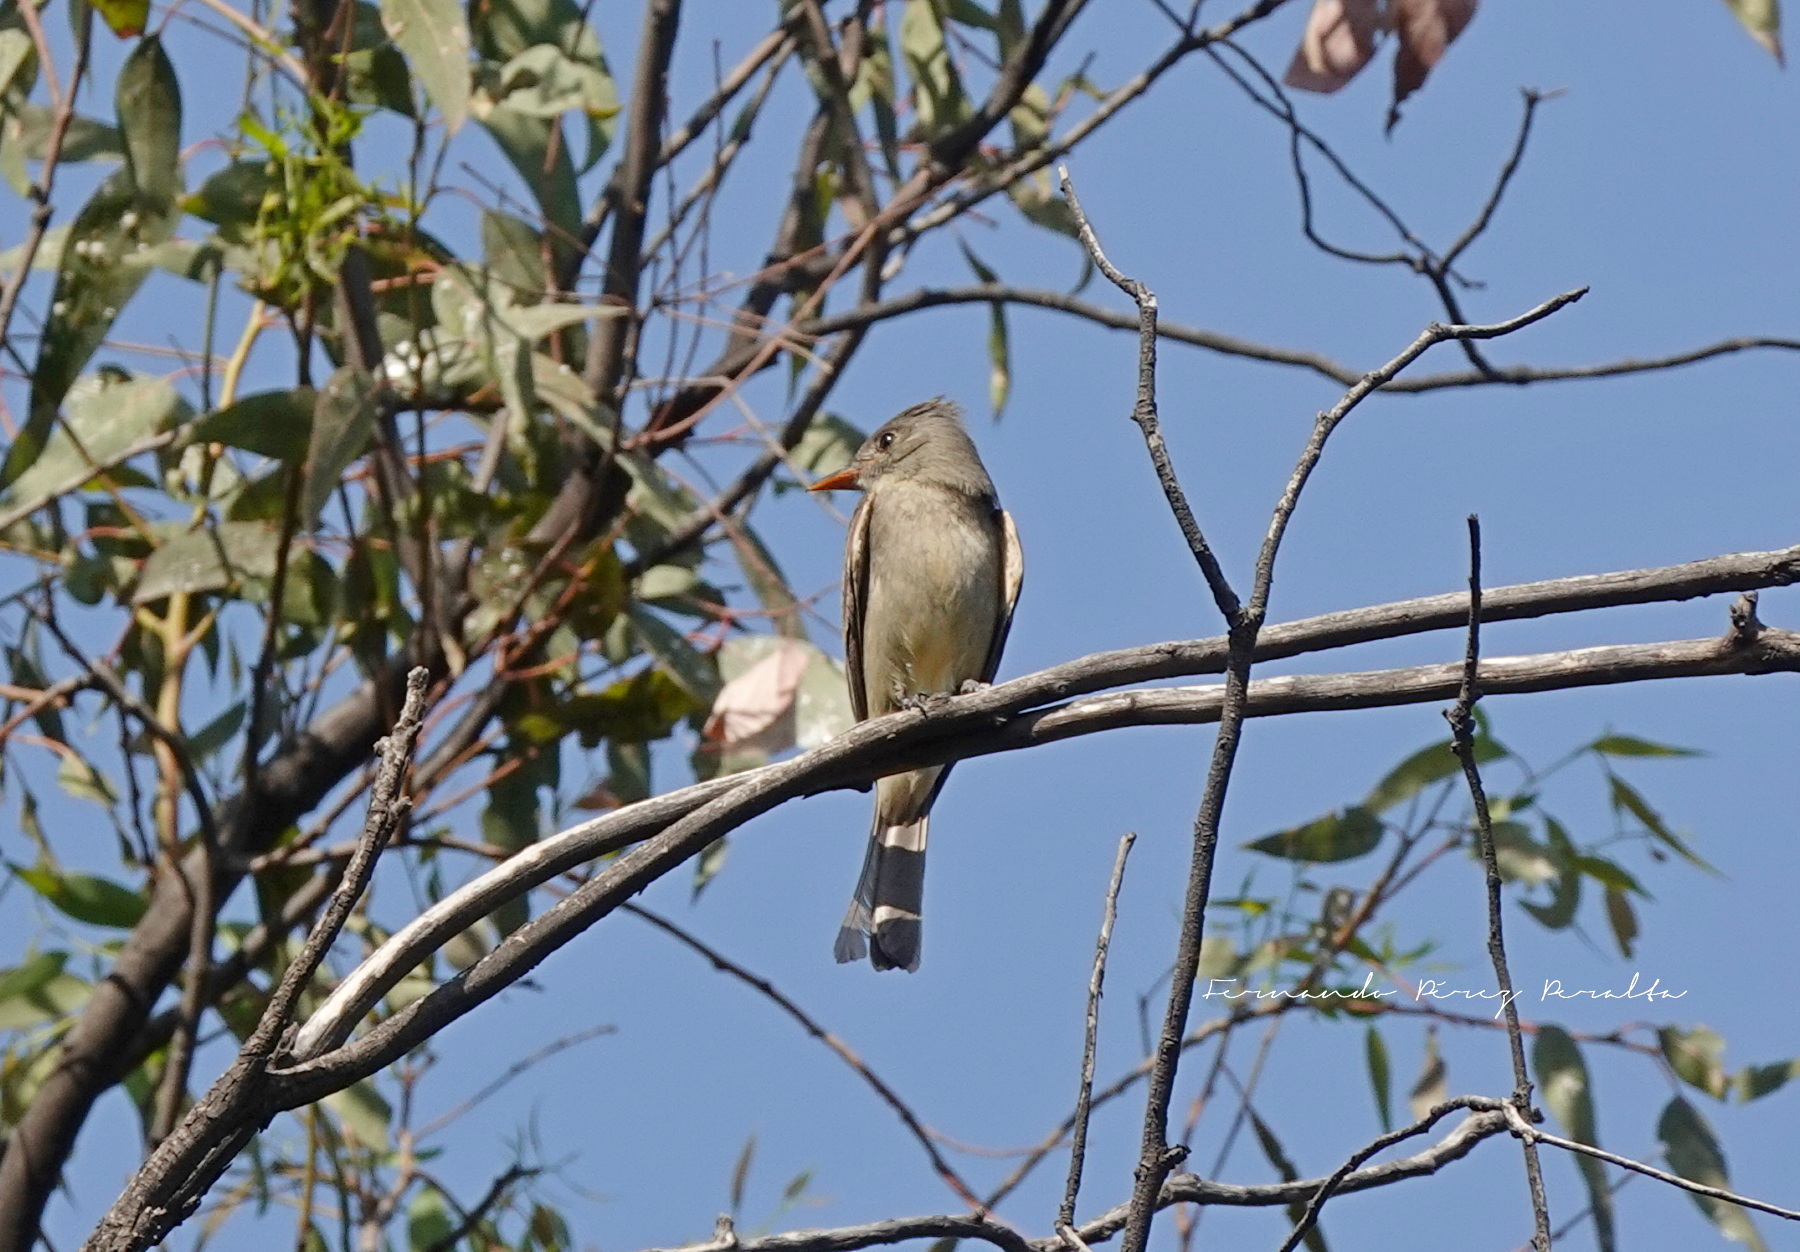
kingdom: Animalia
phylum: Chordata
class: Aves
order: Passeriformes
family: Tyrannidae
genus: Contopus
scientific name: Contopus pertinax
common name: Greater pewee
